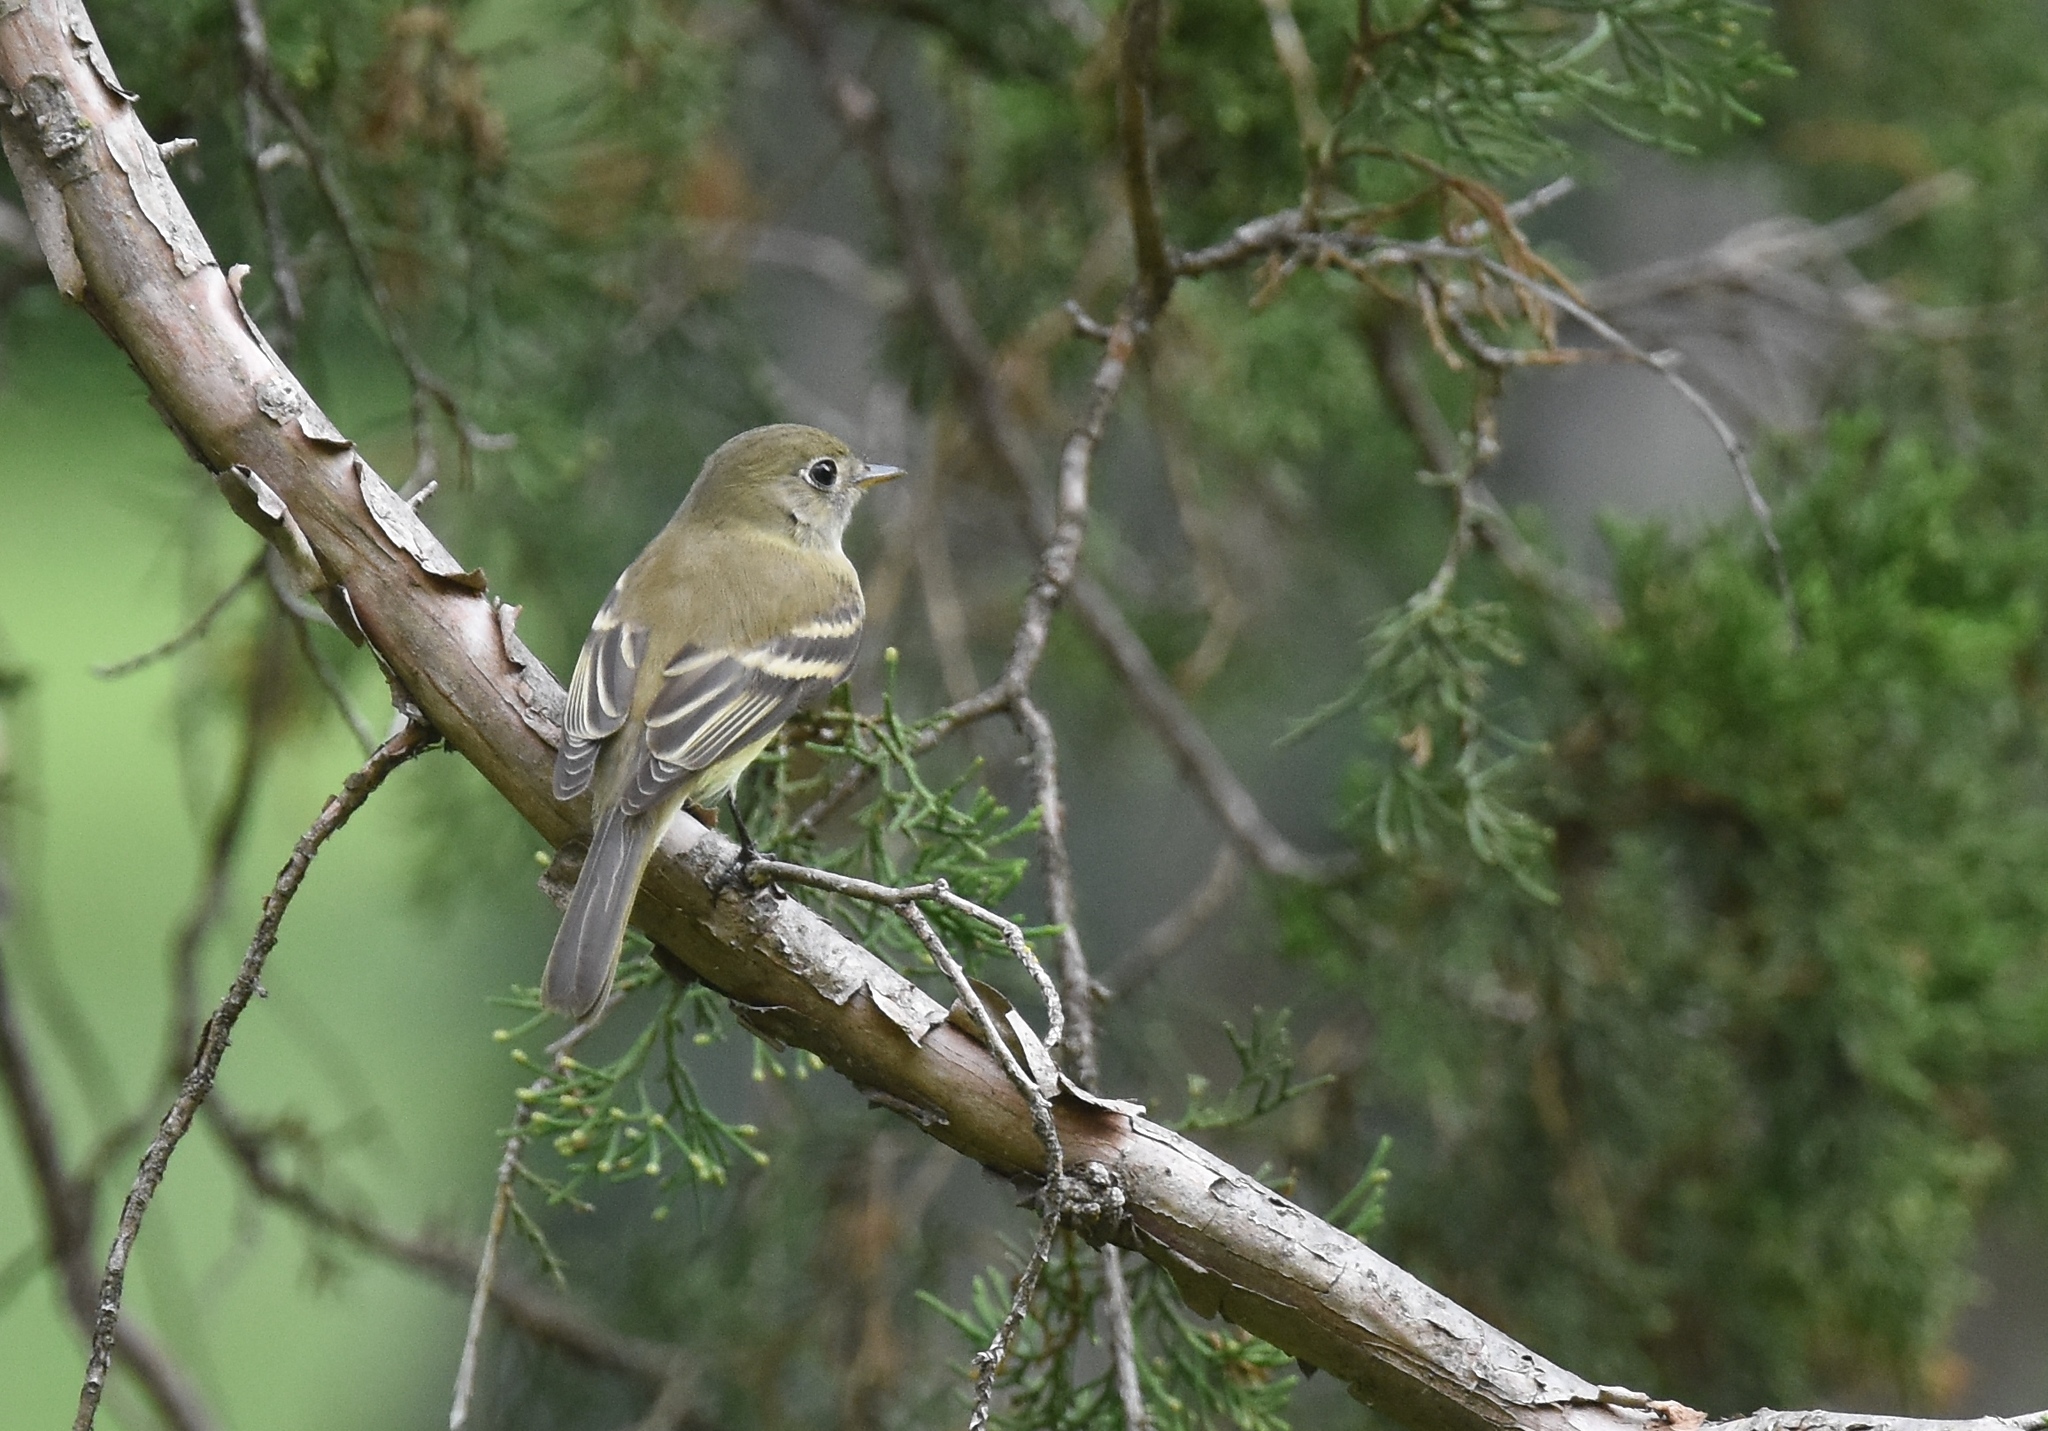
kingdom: Animalia
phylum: Chordata
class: Aves
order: Passeriformes
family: Tyrannidae
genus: Empidonax
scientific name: Empidonax flaviventris
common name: Yellow-bellied flycatcher
